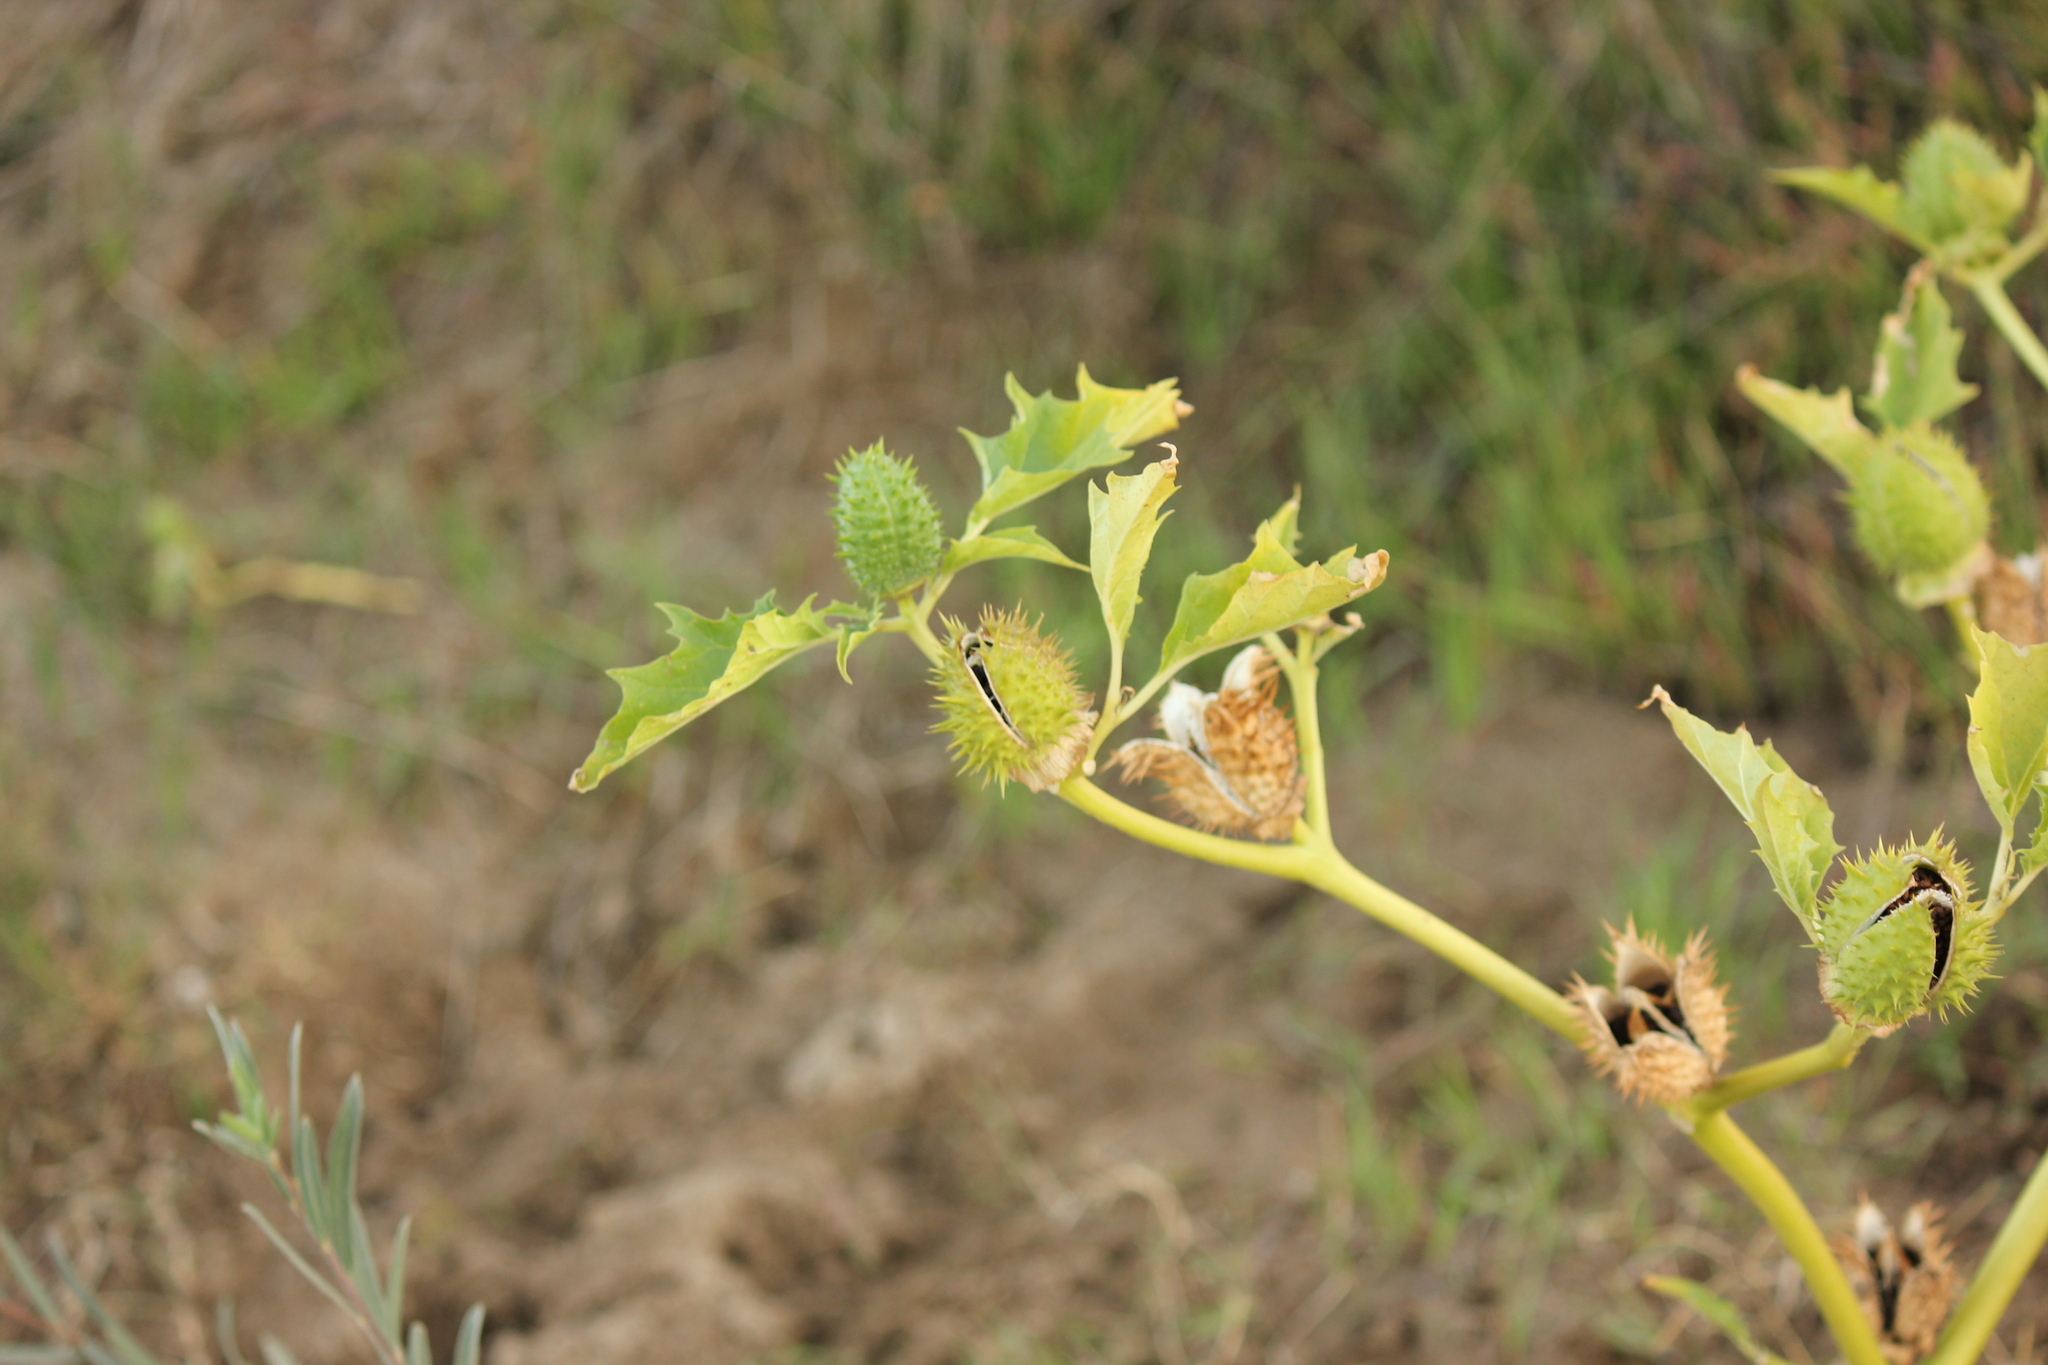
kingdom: Plantae
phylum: Tracheophyta
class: Magnoliopsida
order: Solanales
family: Solanaceae
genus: Datura
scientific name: Datura stramonium
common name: Thorn-apple
